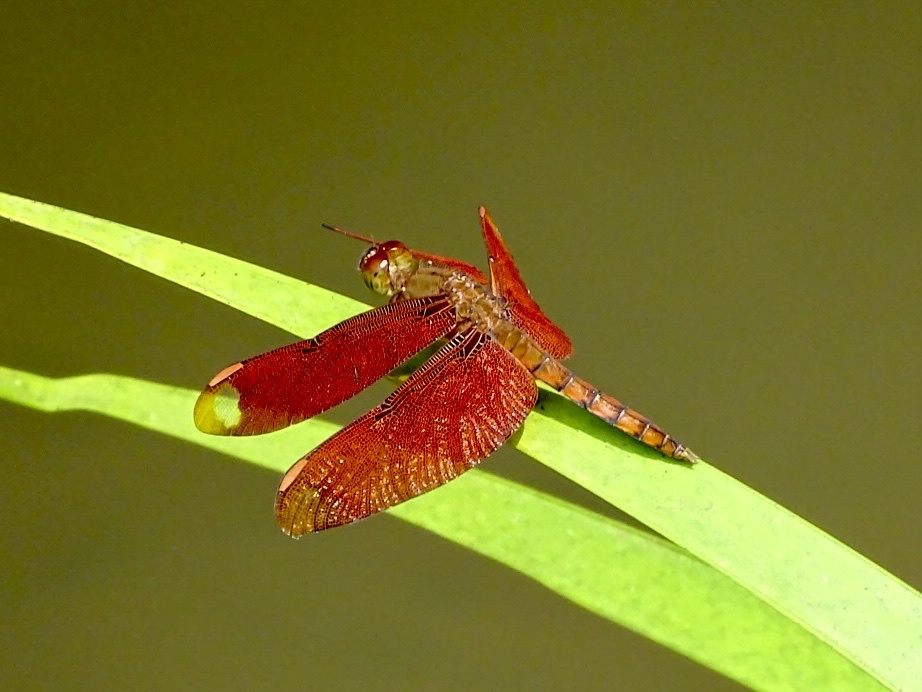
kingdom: Animalia
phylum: Arthropoda
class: Insecta
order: Odonata
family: Libellulidae
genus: Neurothemis
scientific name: Neurothemis fulvia
